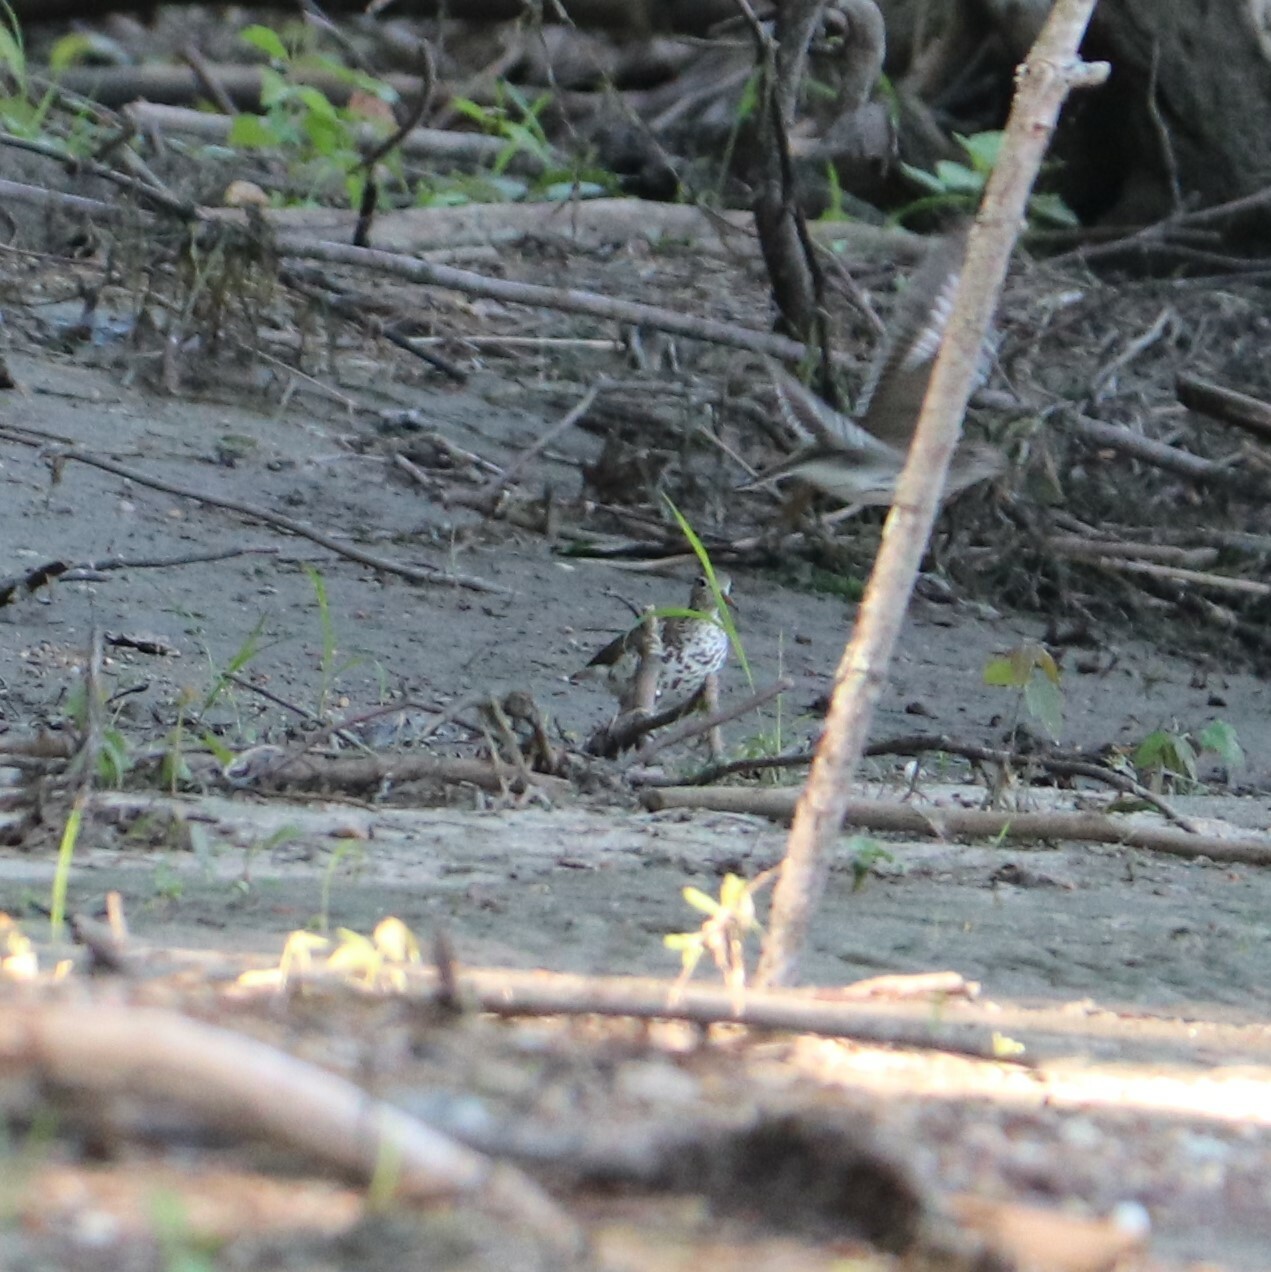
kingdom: Animalia
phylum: Chordata
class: Aves
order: Charadriiformes
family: Scolopacidae
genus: Actitis
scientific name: Actitis macularius
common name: Spotted sandpiper
